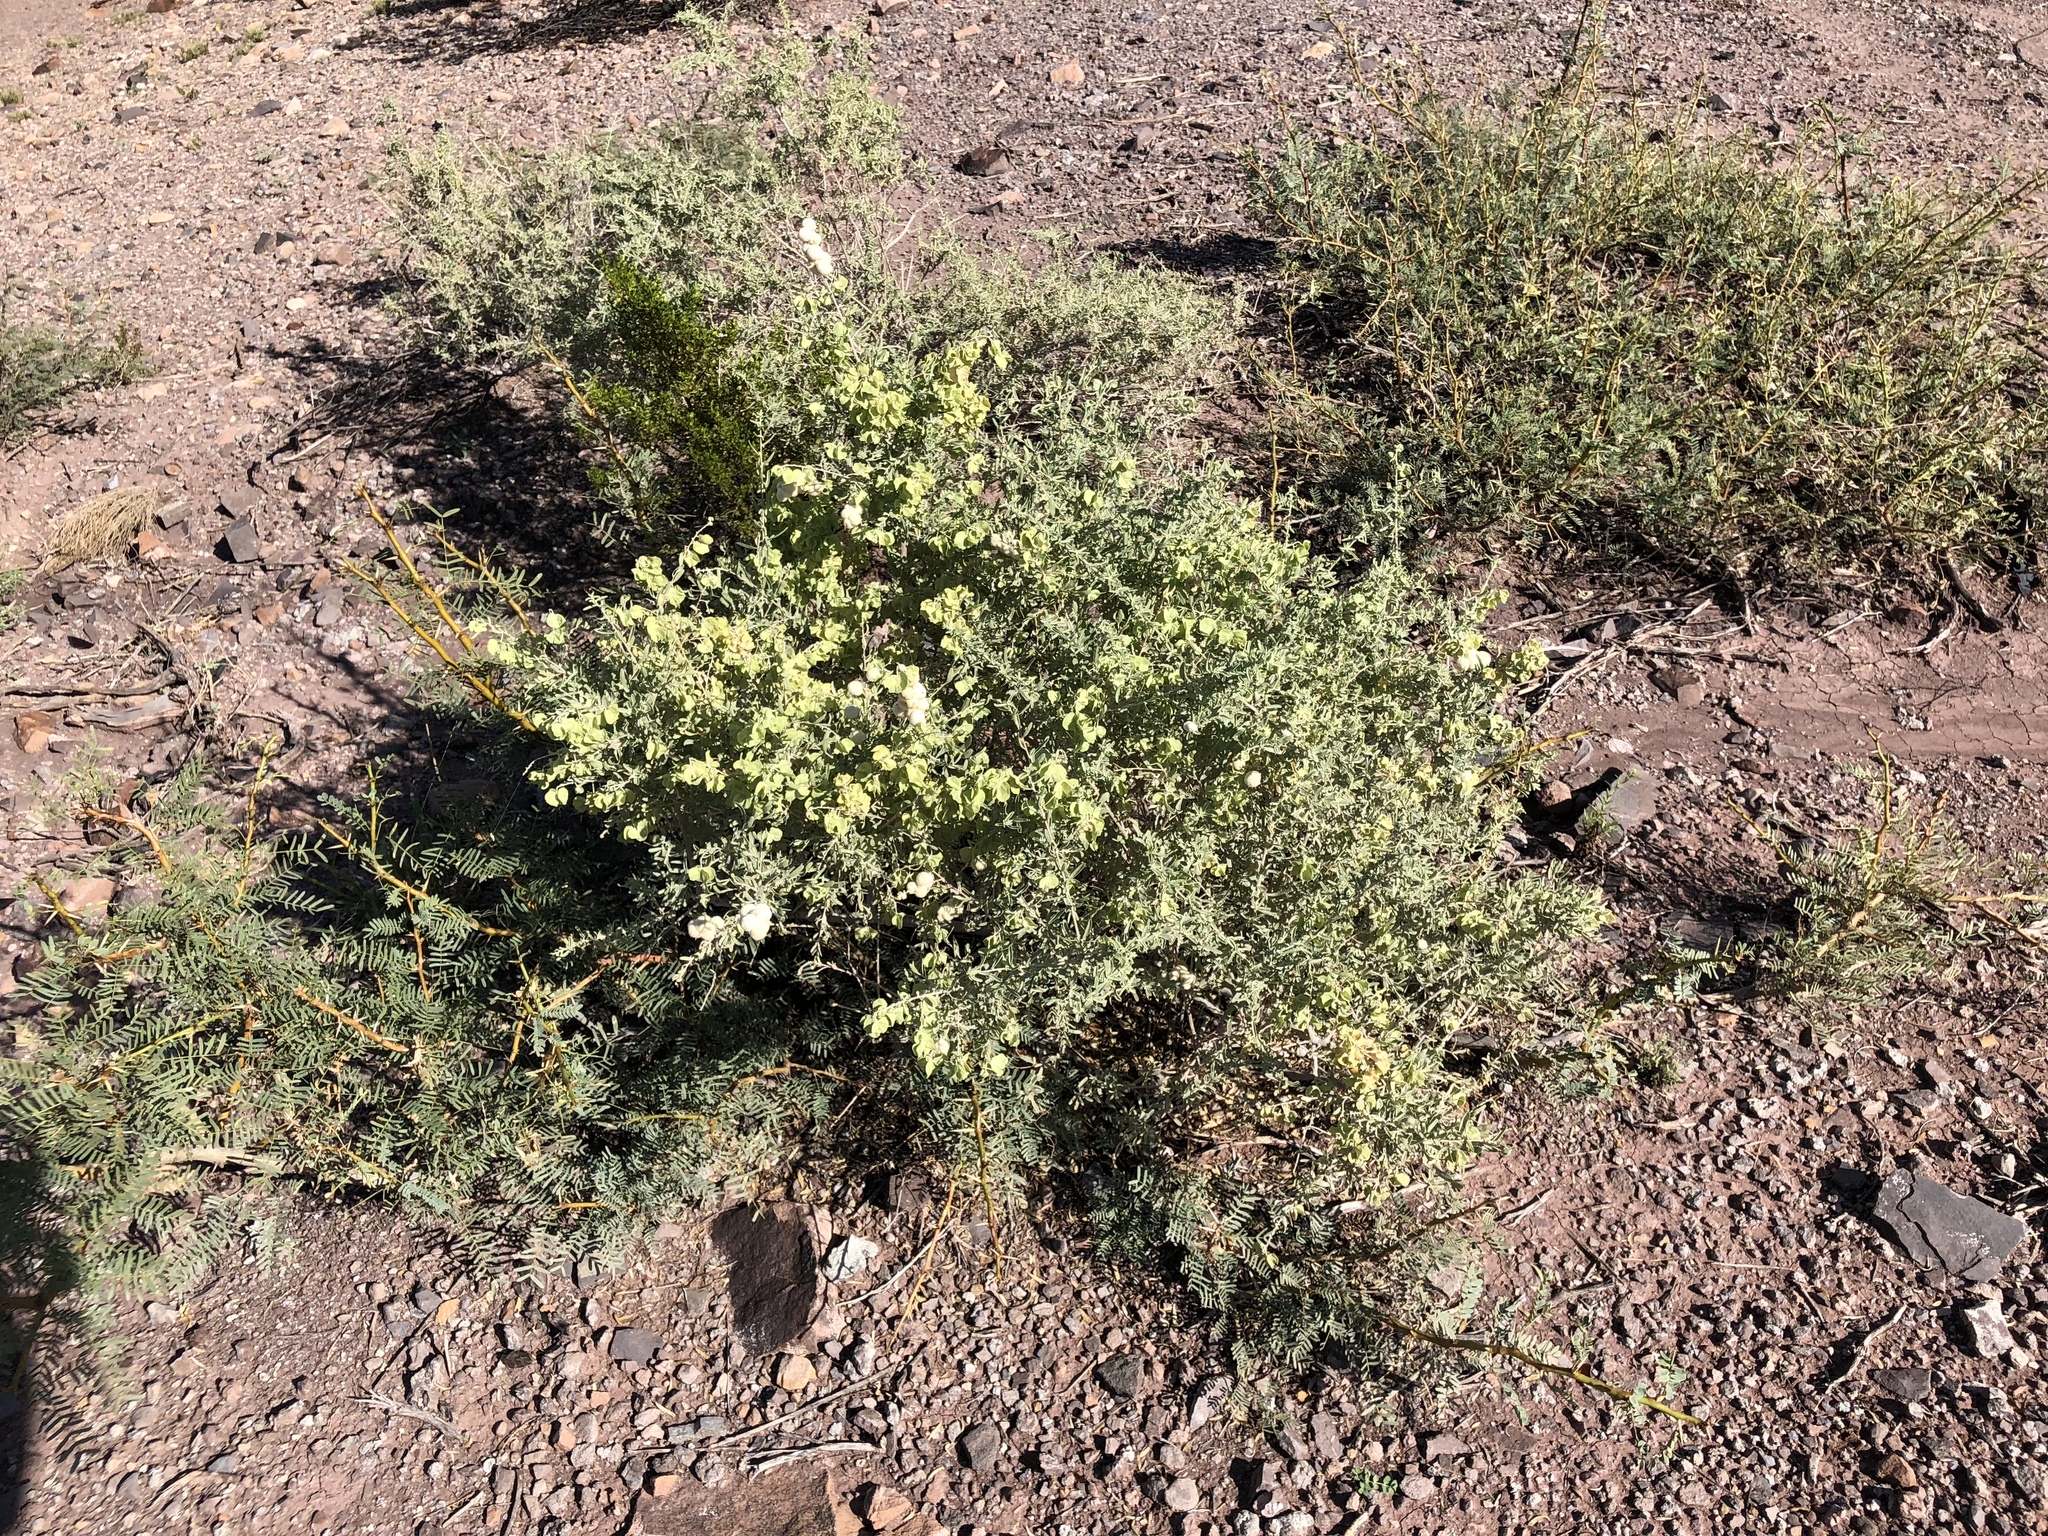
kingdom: Plantae
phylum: Tracheophyta
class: Magnoliopsida
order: Caryophyllales
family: Amaranthaceae
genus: Atriplex
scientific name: Atriplex canescens
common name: Four-wing saltbush
